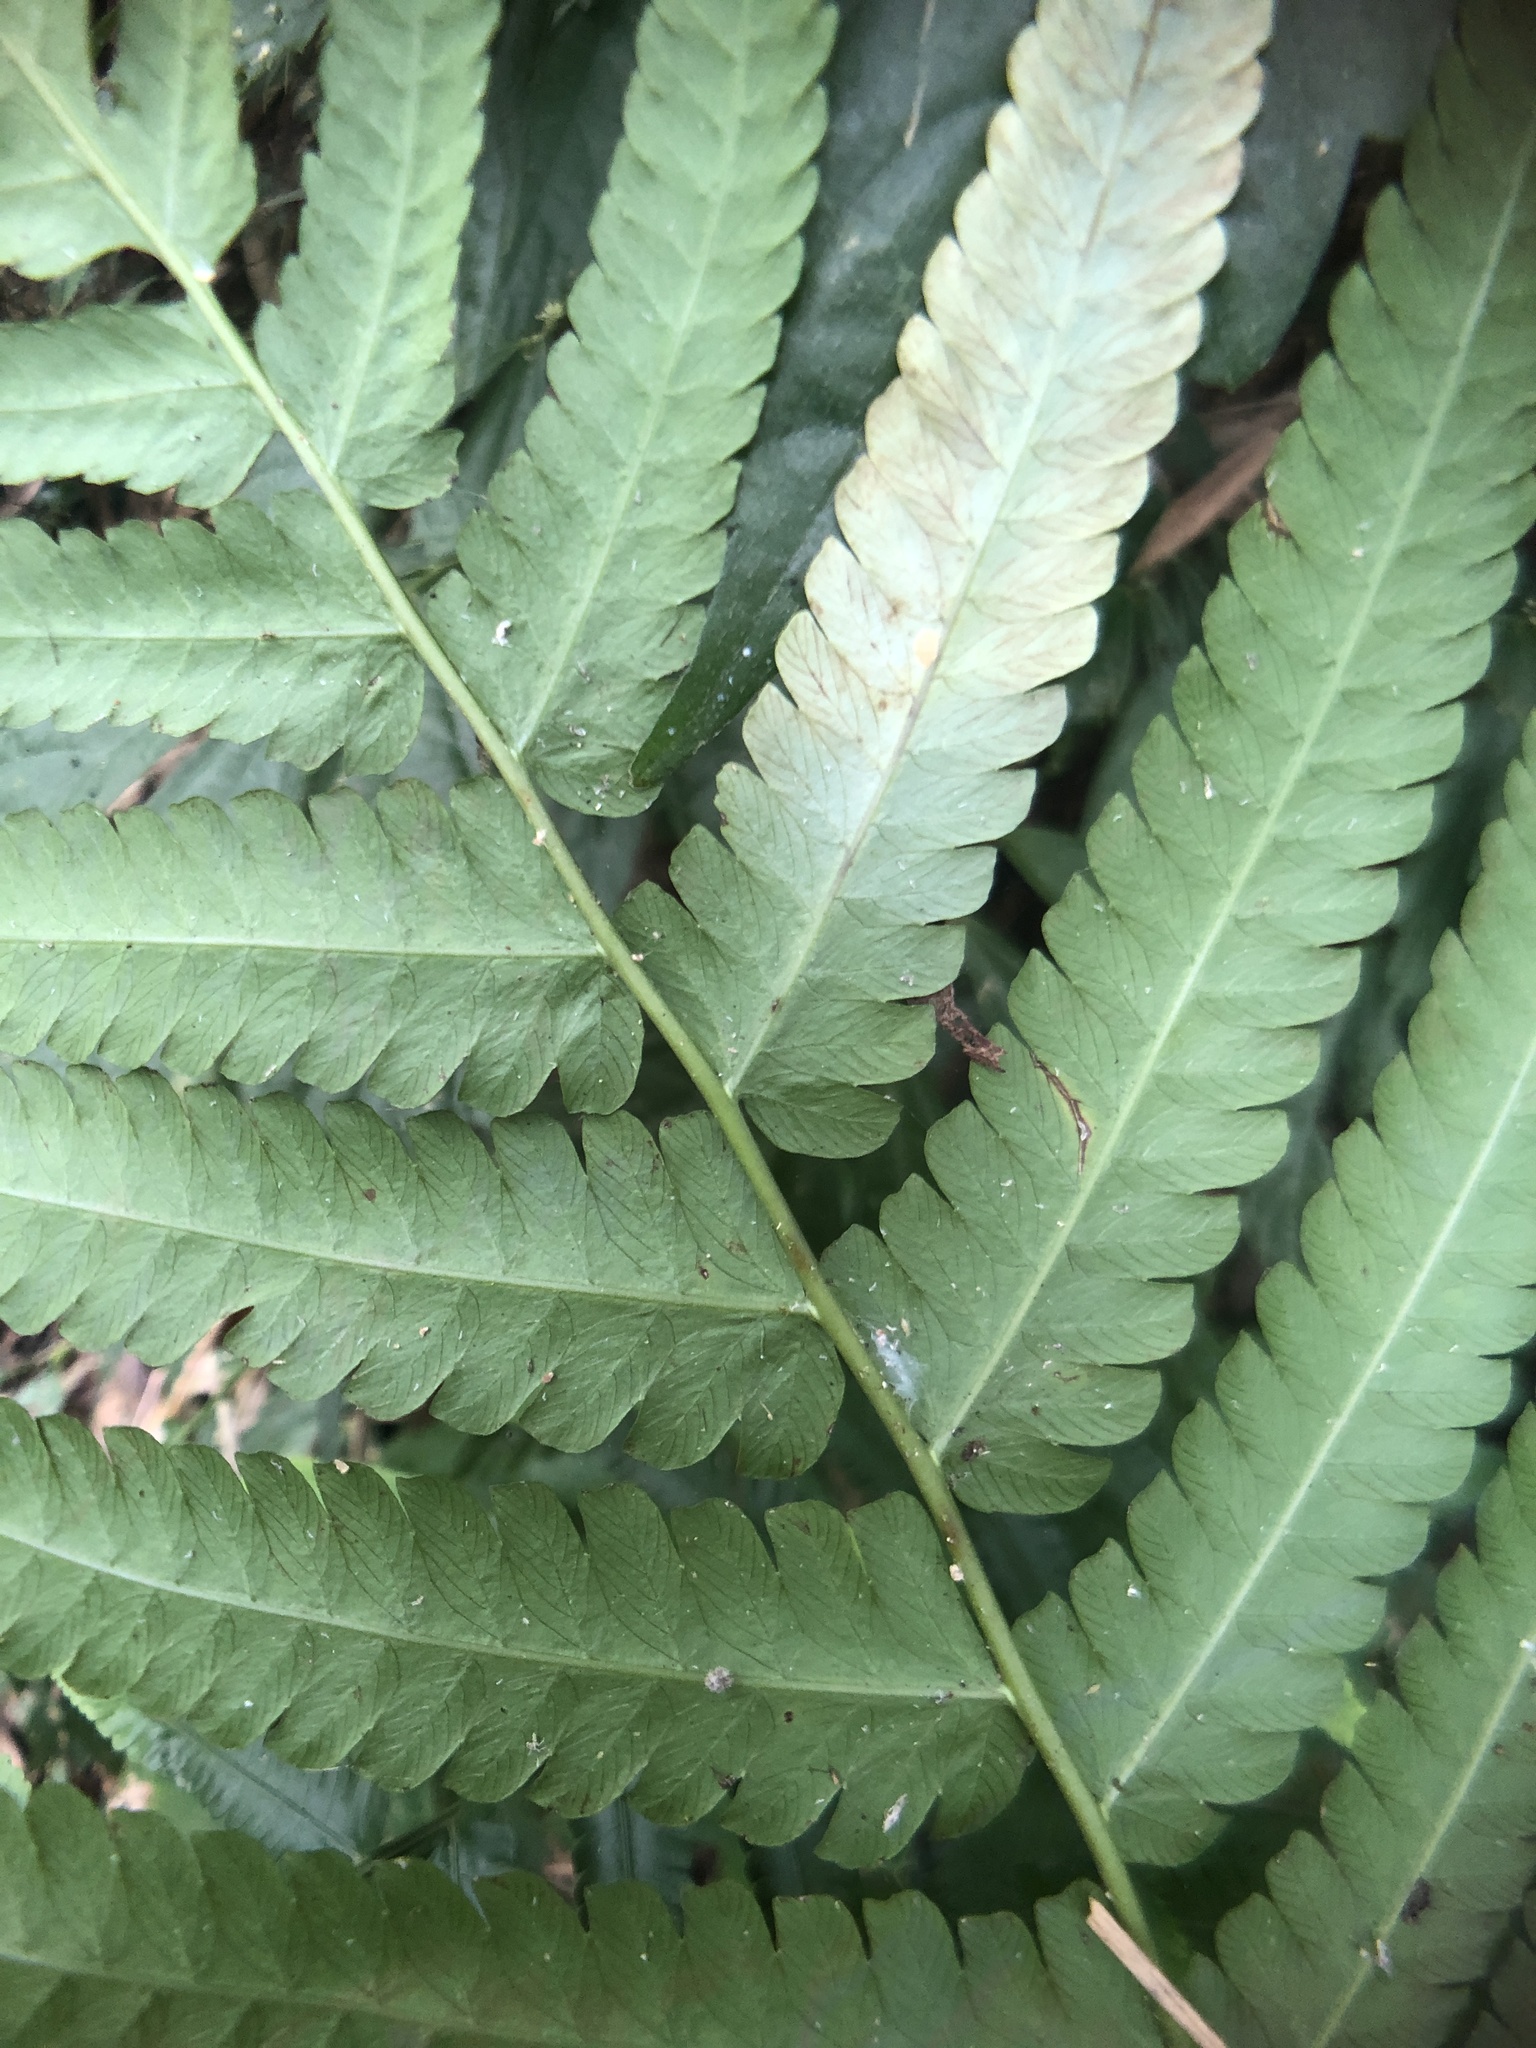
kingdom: Plantae
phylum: Tracheophyta
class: Polypodiopsida
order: Polypodiales
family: Thelypteridaceae
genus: Reholttumia
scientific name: Reholttumia truncata
